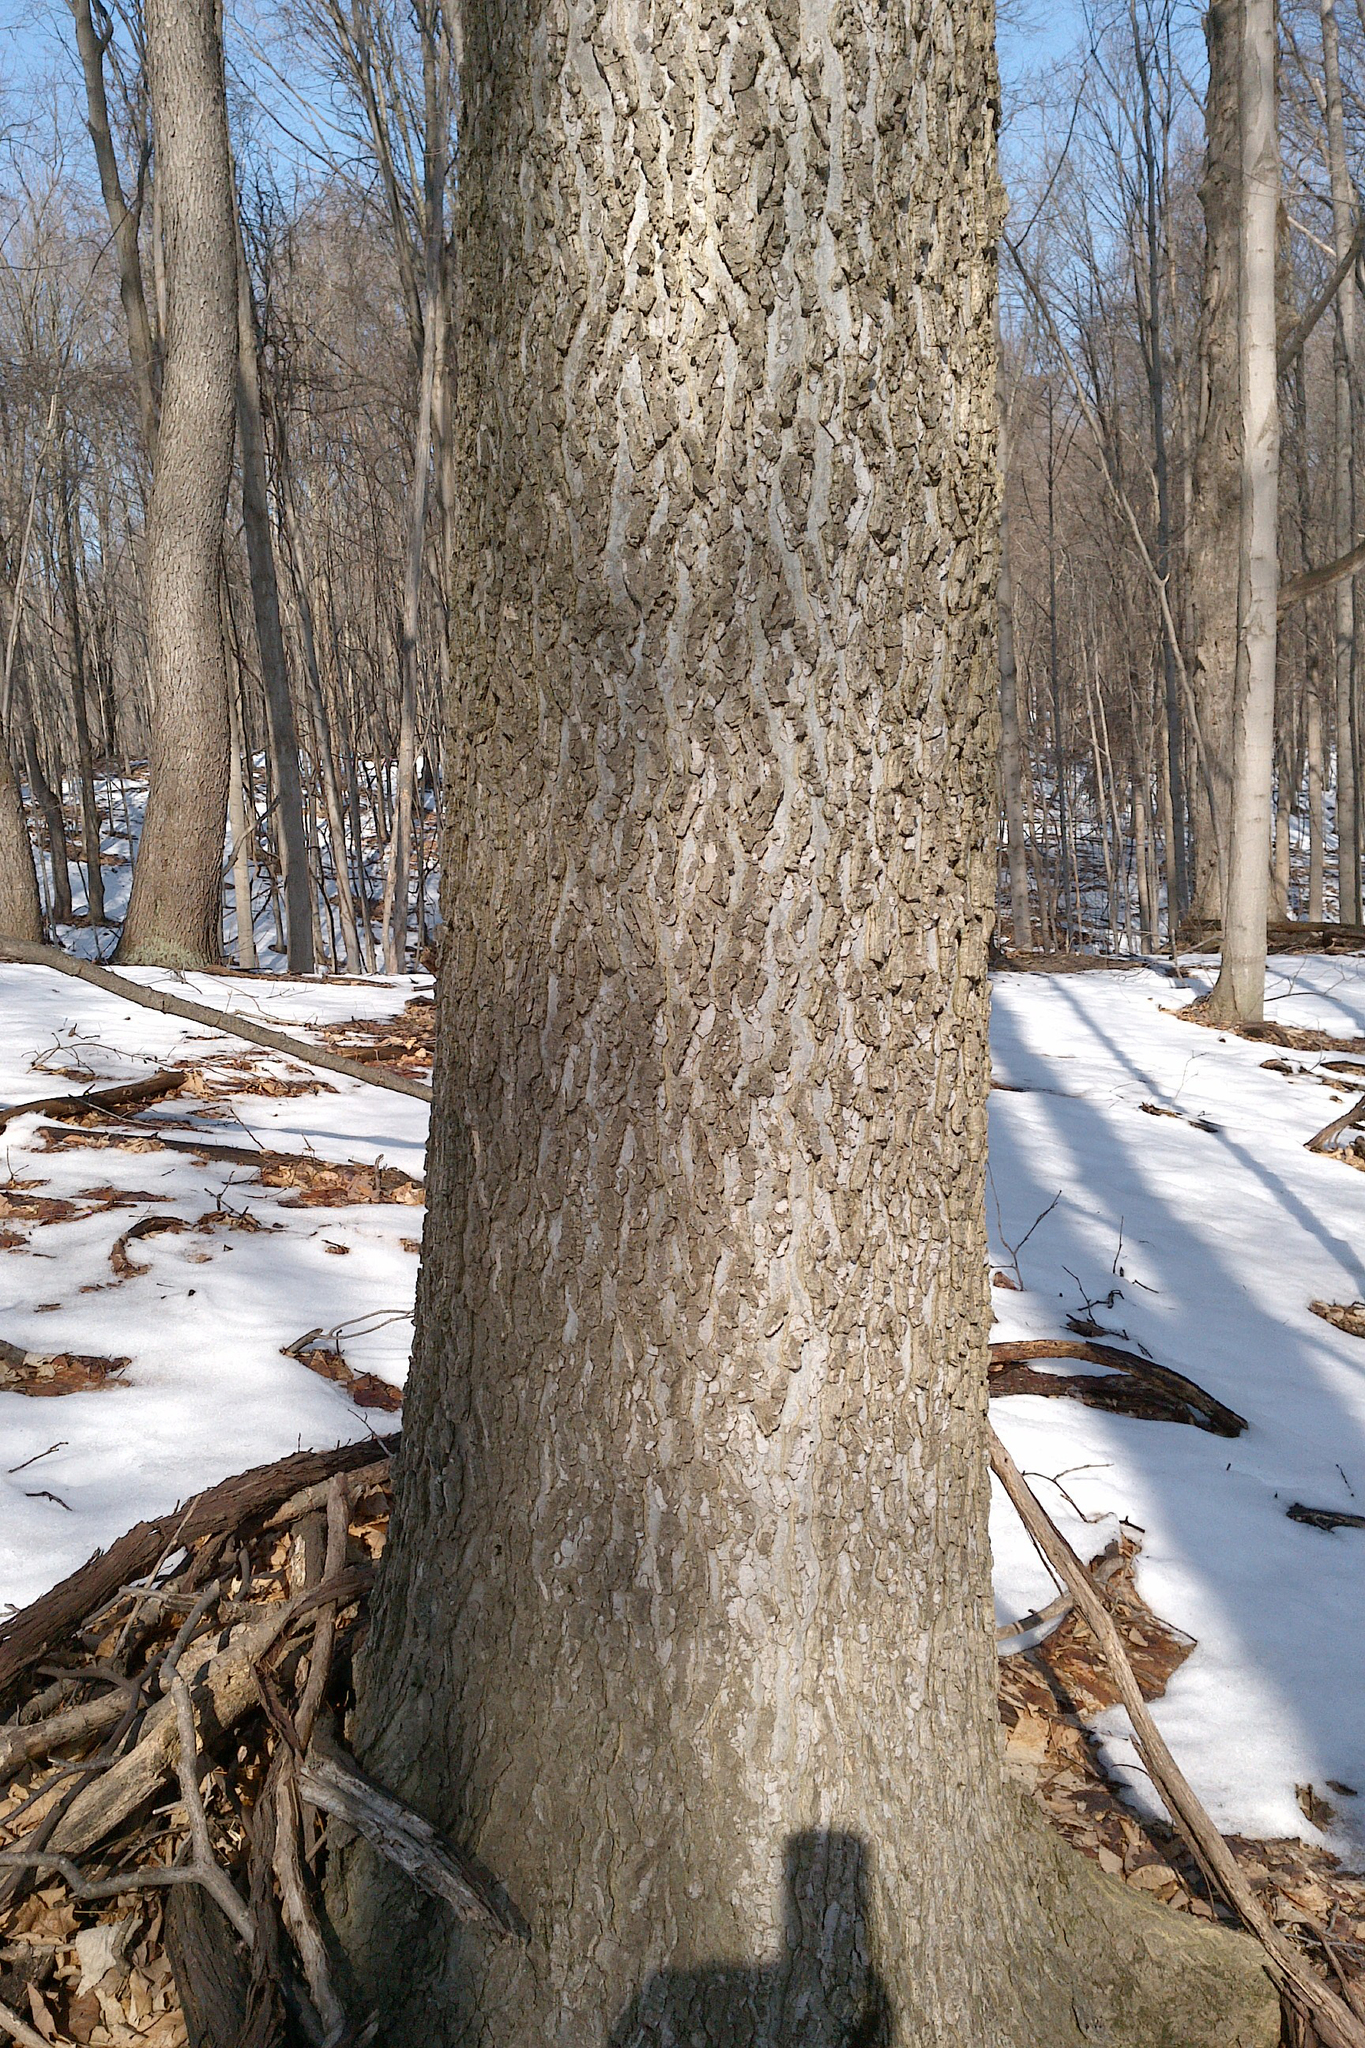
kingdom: Plantae
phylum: Tracheophyta
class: Magnoliopsida
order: Rosales
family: Cannabaceae
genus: Celtis
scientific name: Celtis occidentalis
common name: Common hackberry
